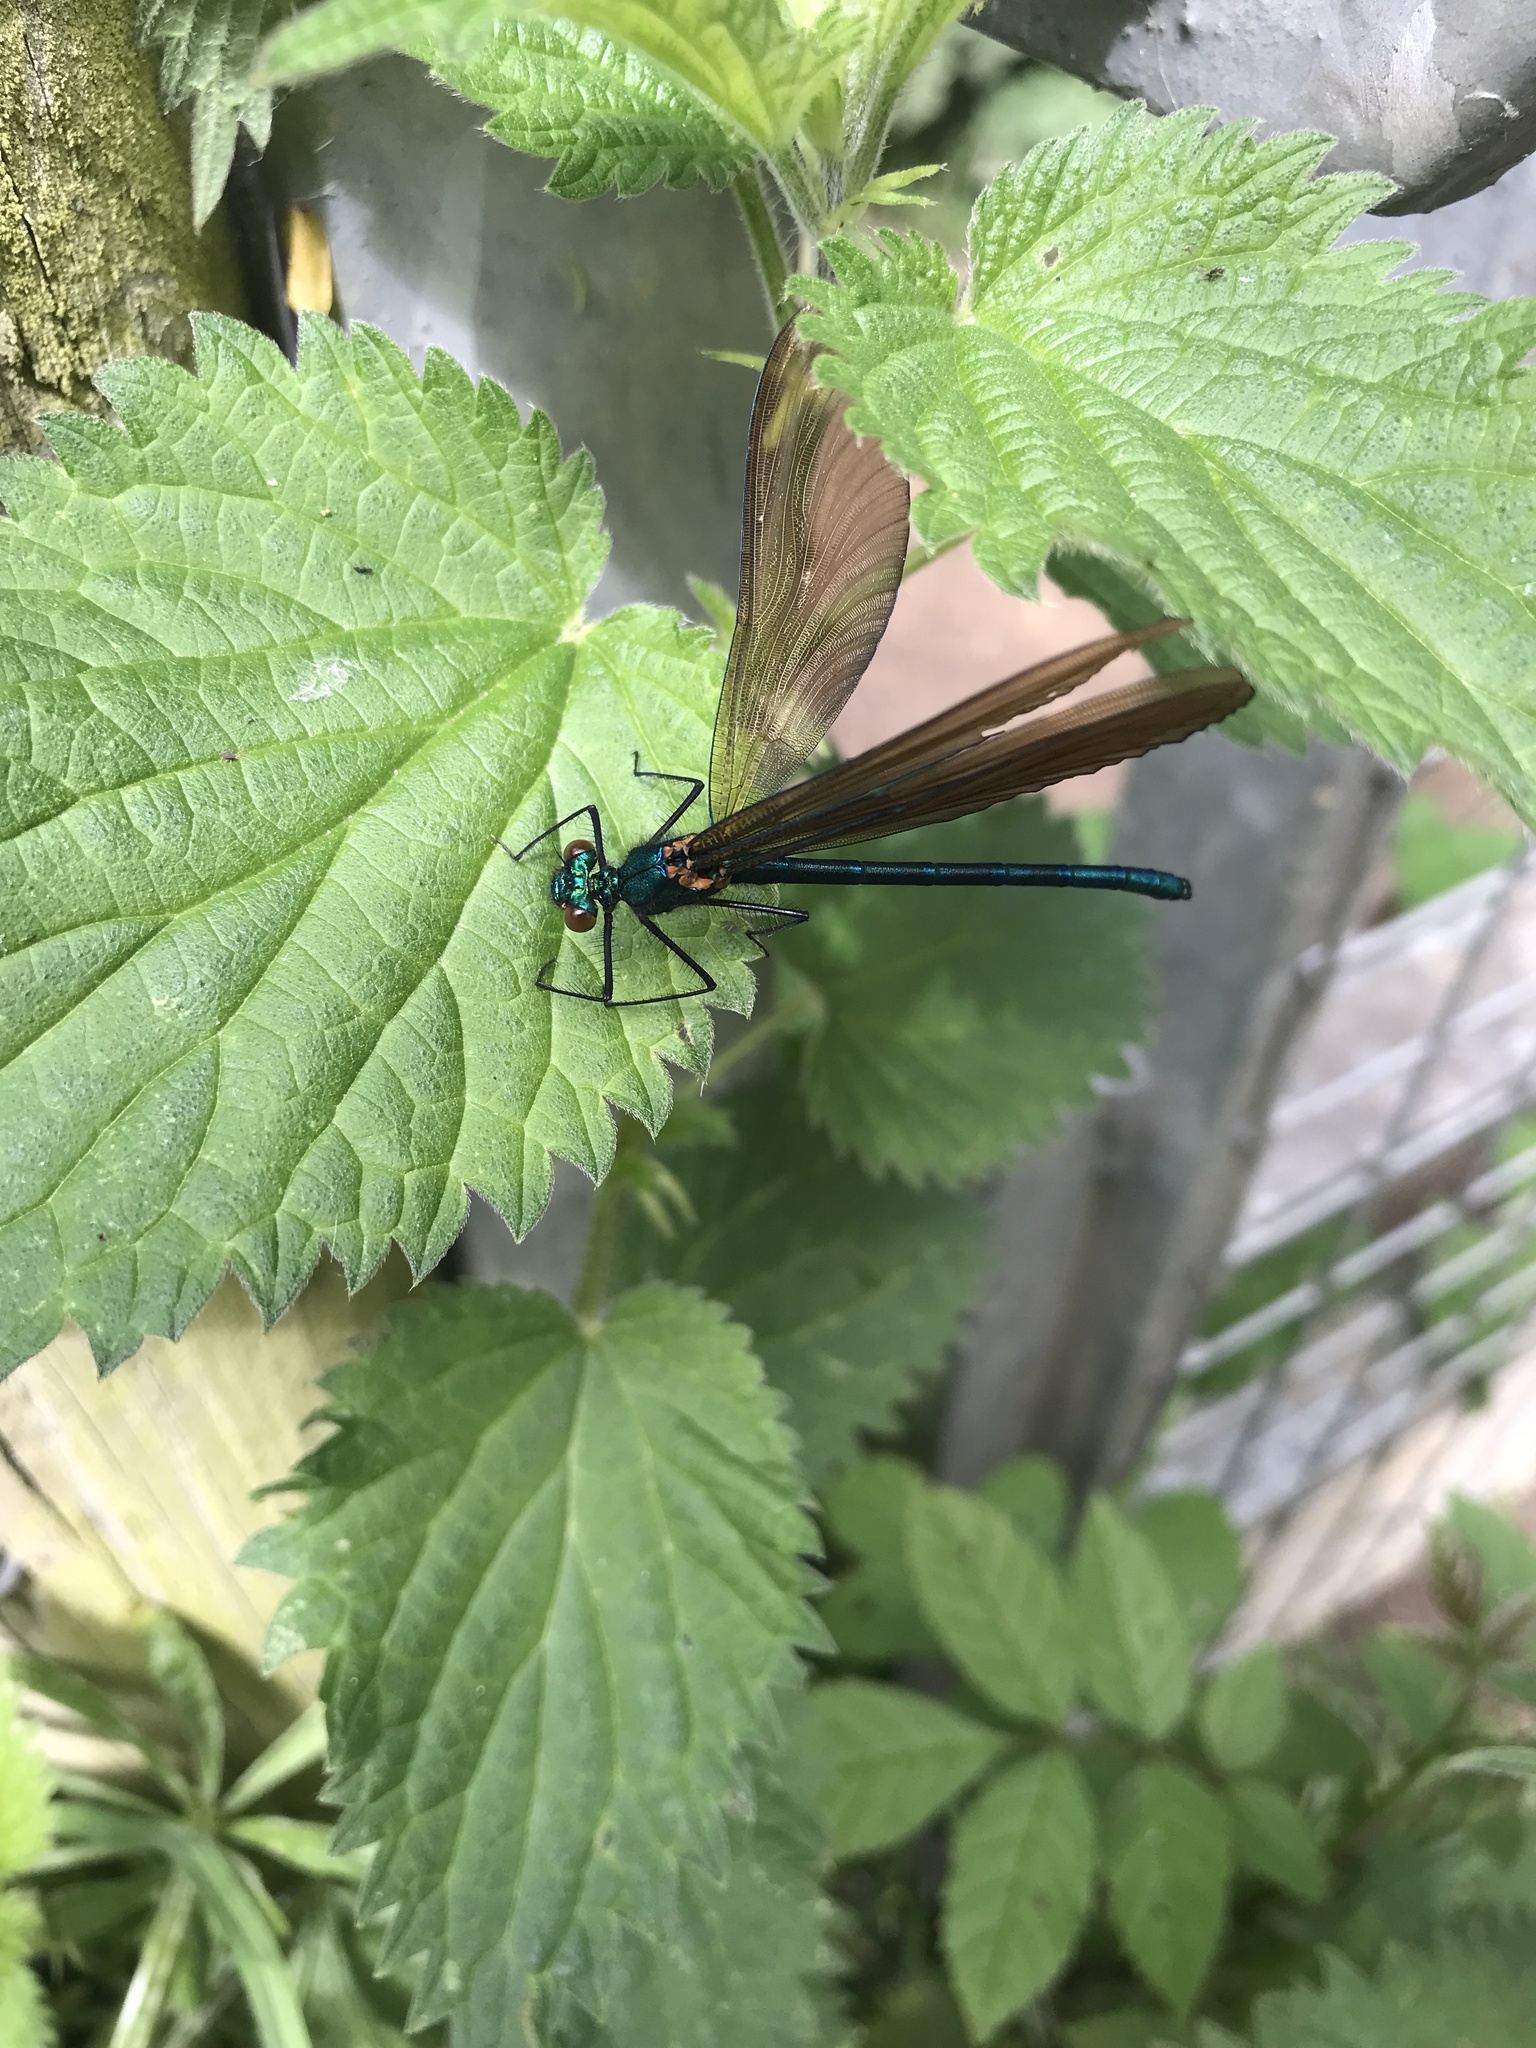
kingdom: Animalia
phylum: Arthropoda
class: Insecta
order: Odonata
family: Calopterygidae
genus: Calopteryx
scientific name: Calopteryx virgo
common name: Beautiful demoiselle
